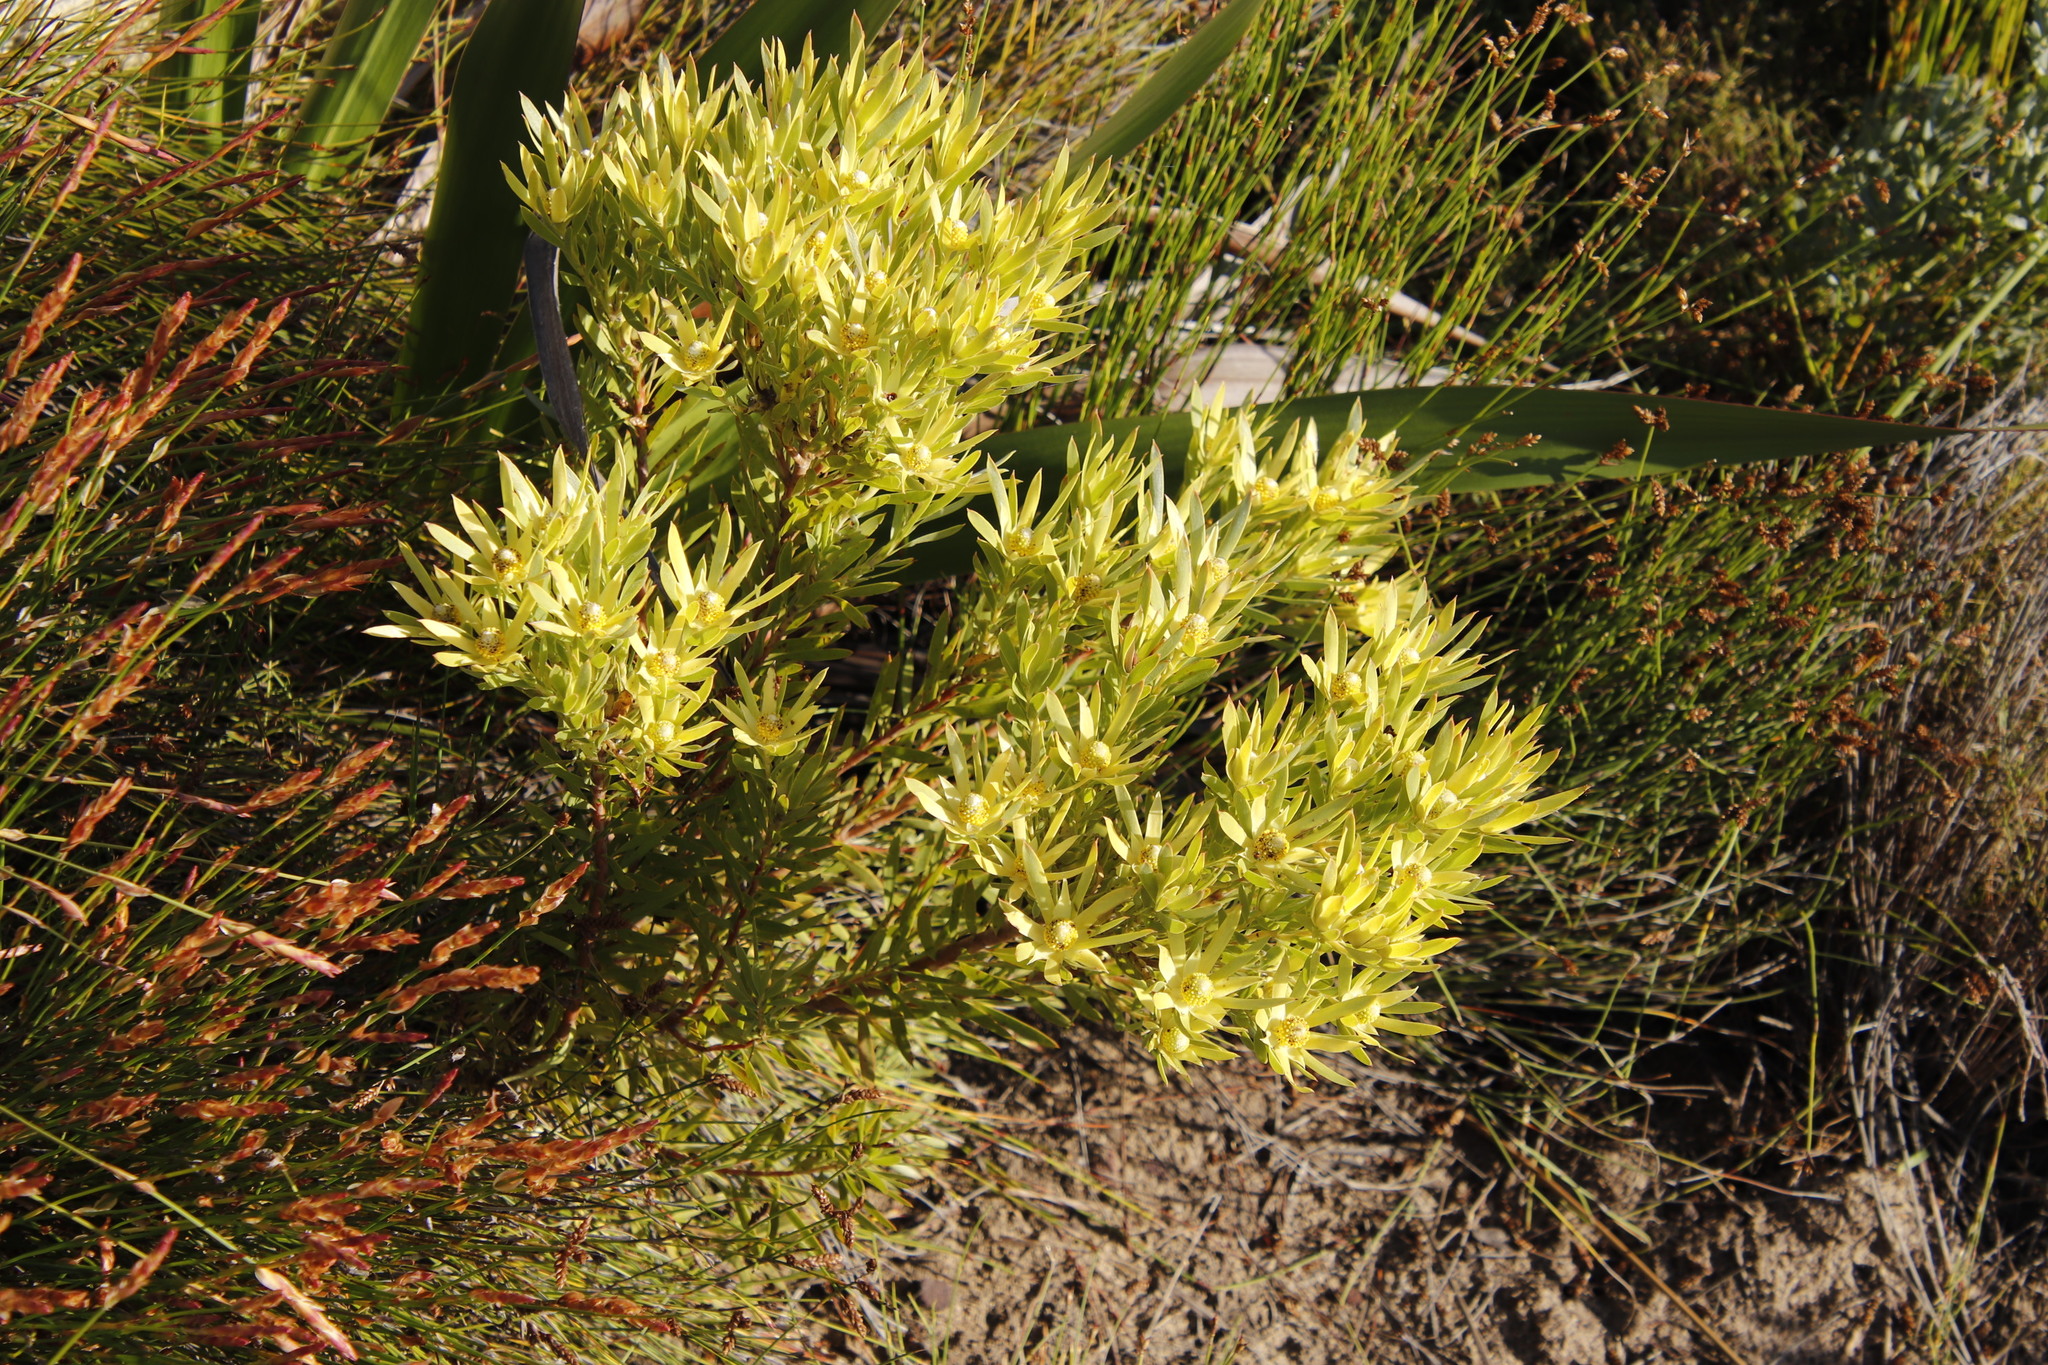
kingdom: Plantae
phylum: Tracheophyta
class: Magnoliopsida
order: Proteales
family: Proteaceae
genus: Leucadendron
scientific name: Leucadendron xanthoconus
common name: Sickle-leaf conebush
